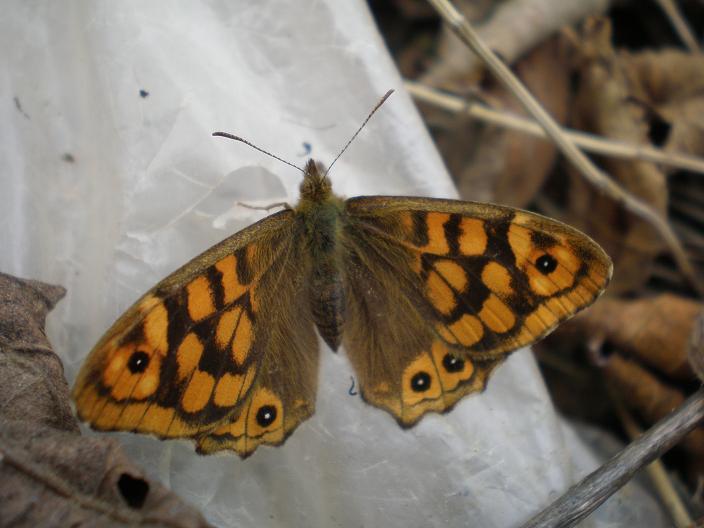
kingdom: Animalia
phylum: Arthropoda
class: Insecta
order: Lepidoptera
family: Nymphalidae
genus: Pararge
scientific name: Pararge aegeria
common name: Speckled wood
